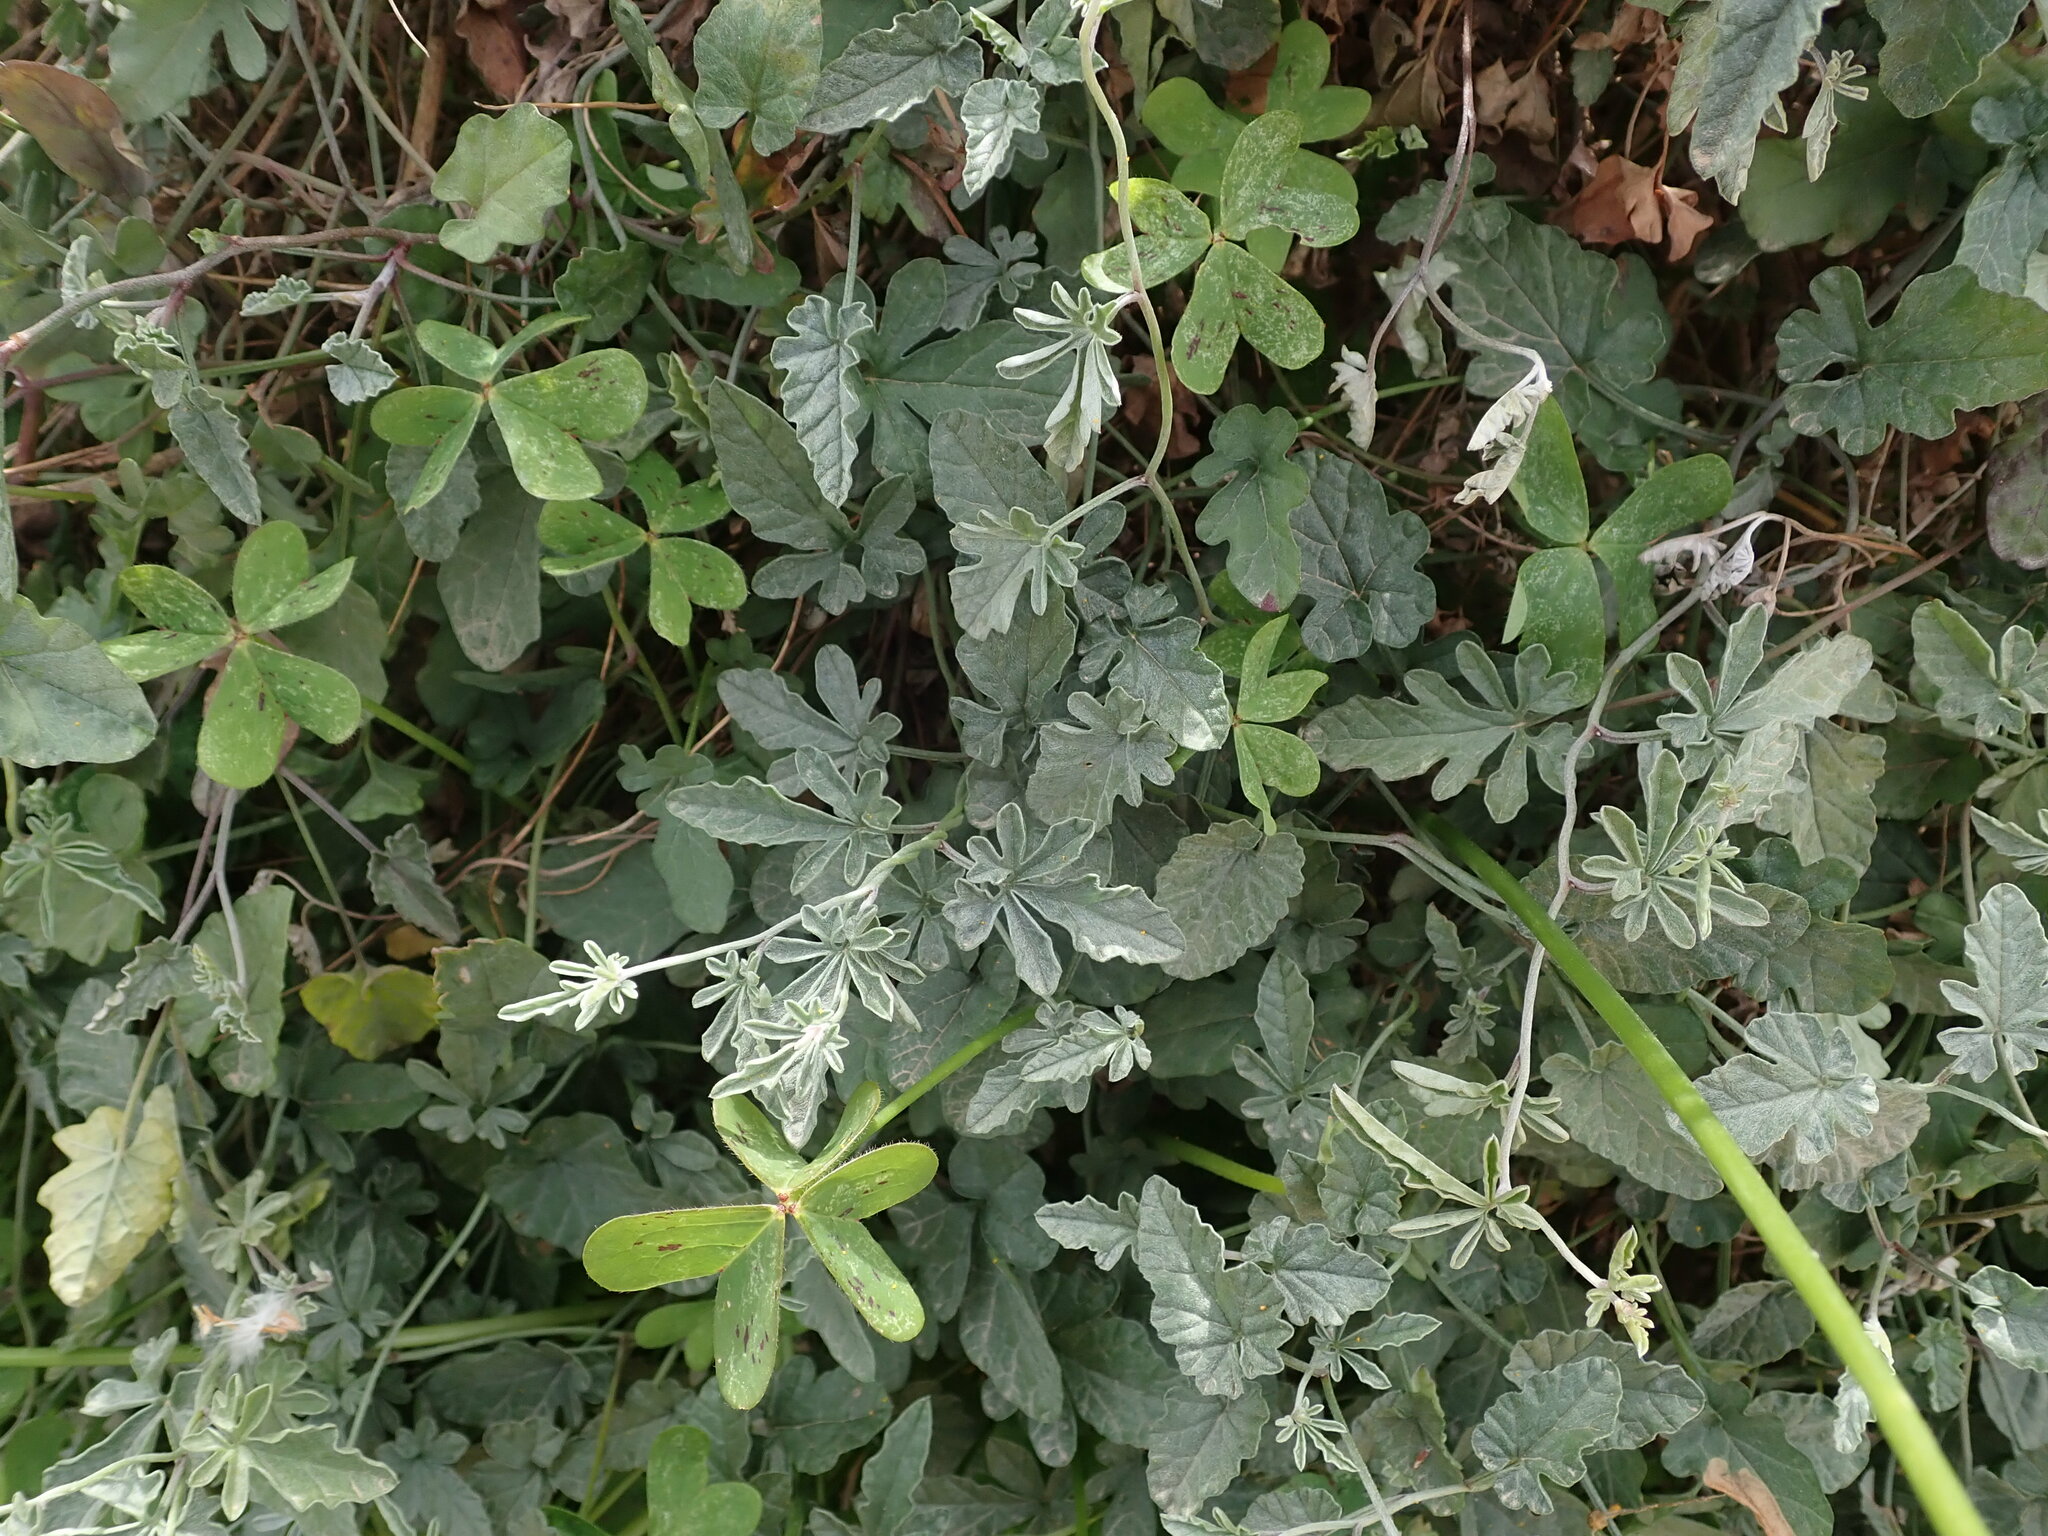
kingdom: Plantae
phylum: Tracheophyta
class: Magnoliopsida
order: Solanales
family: Convolvulaceae
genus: Convolvulus
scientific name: Convolvulus elegantissimus
